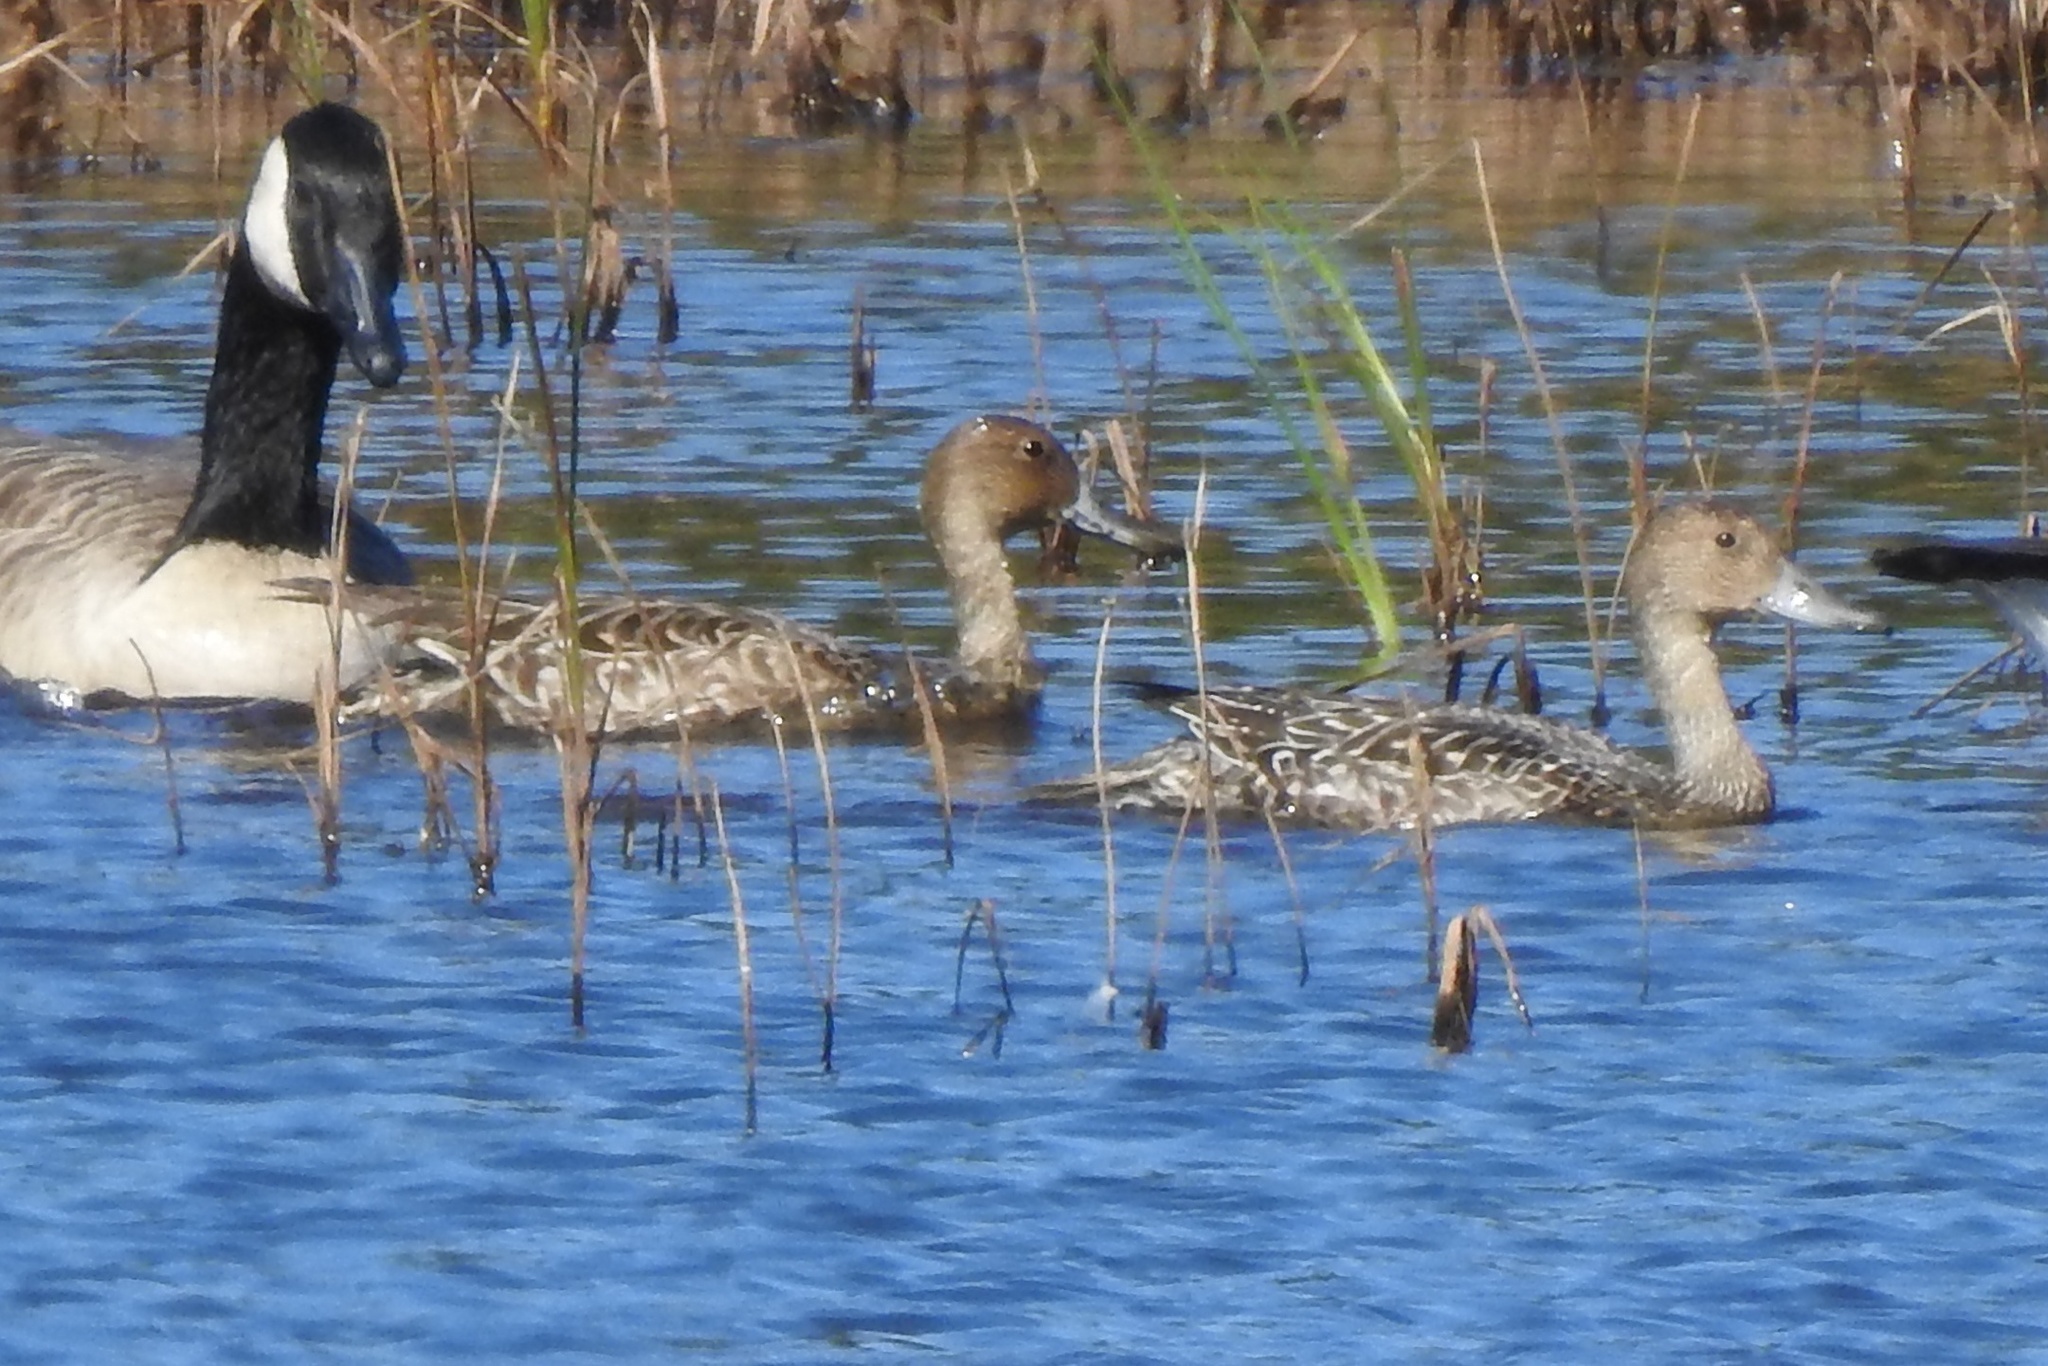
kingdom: Animalia
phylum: Chordata
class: Aves
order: Anseriformes
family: Anatidae
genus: Anas
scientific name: Anas acuta
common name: Northern pintail
